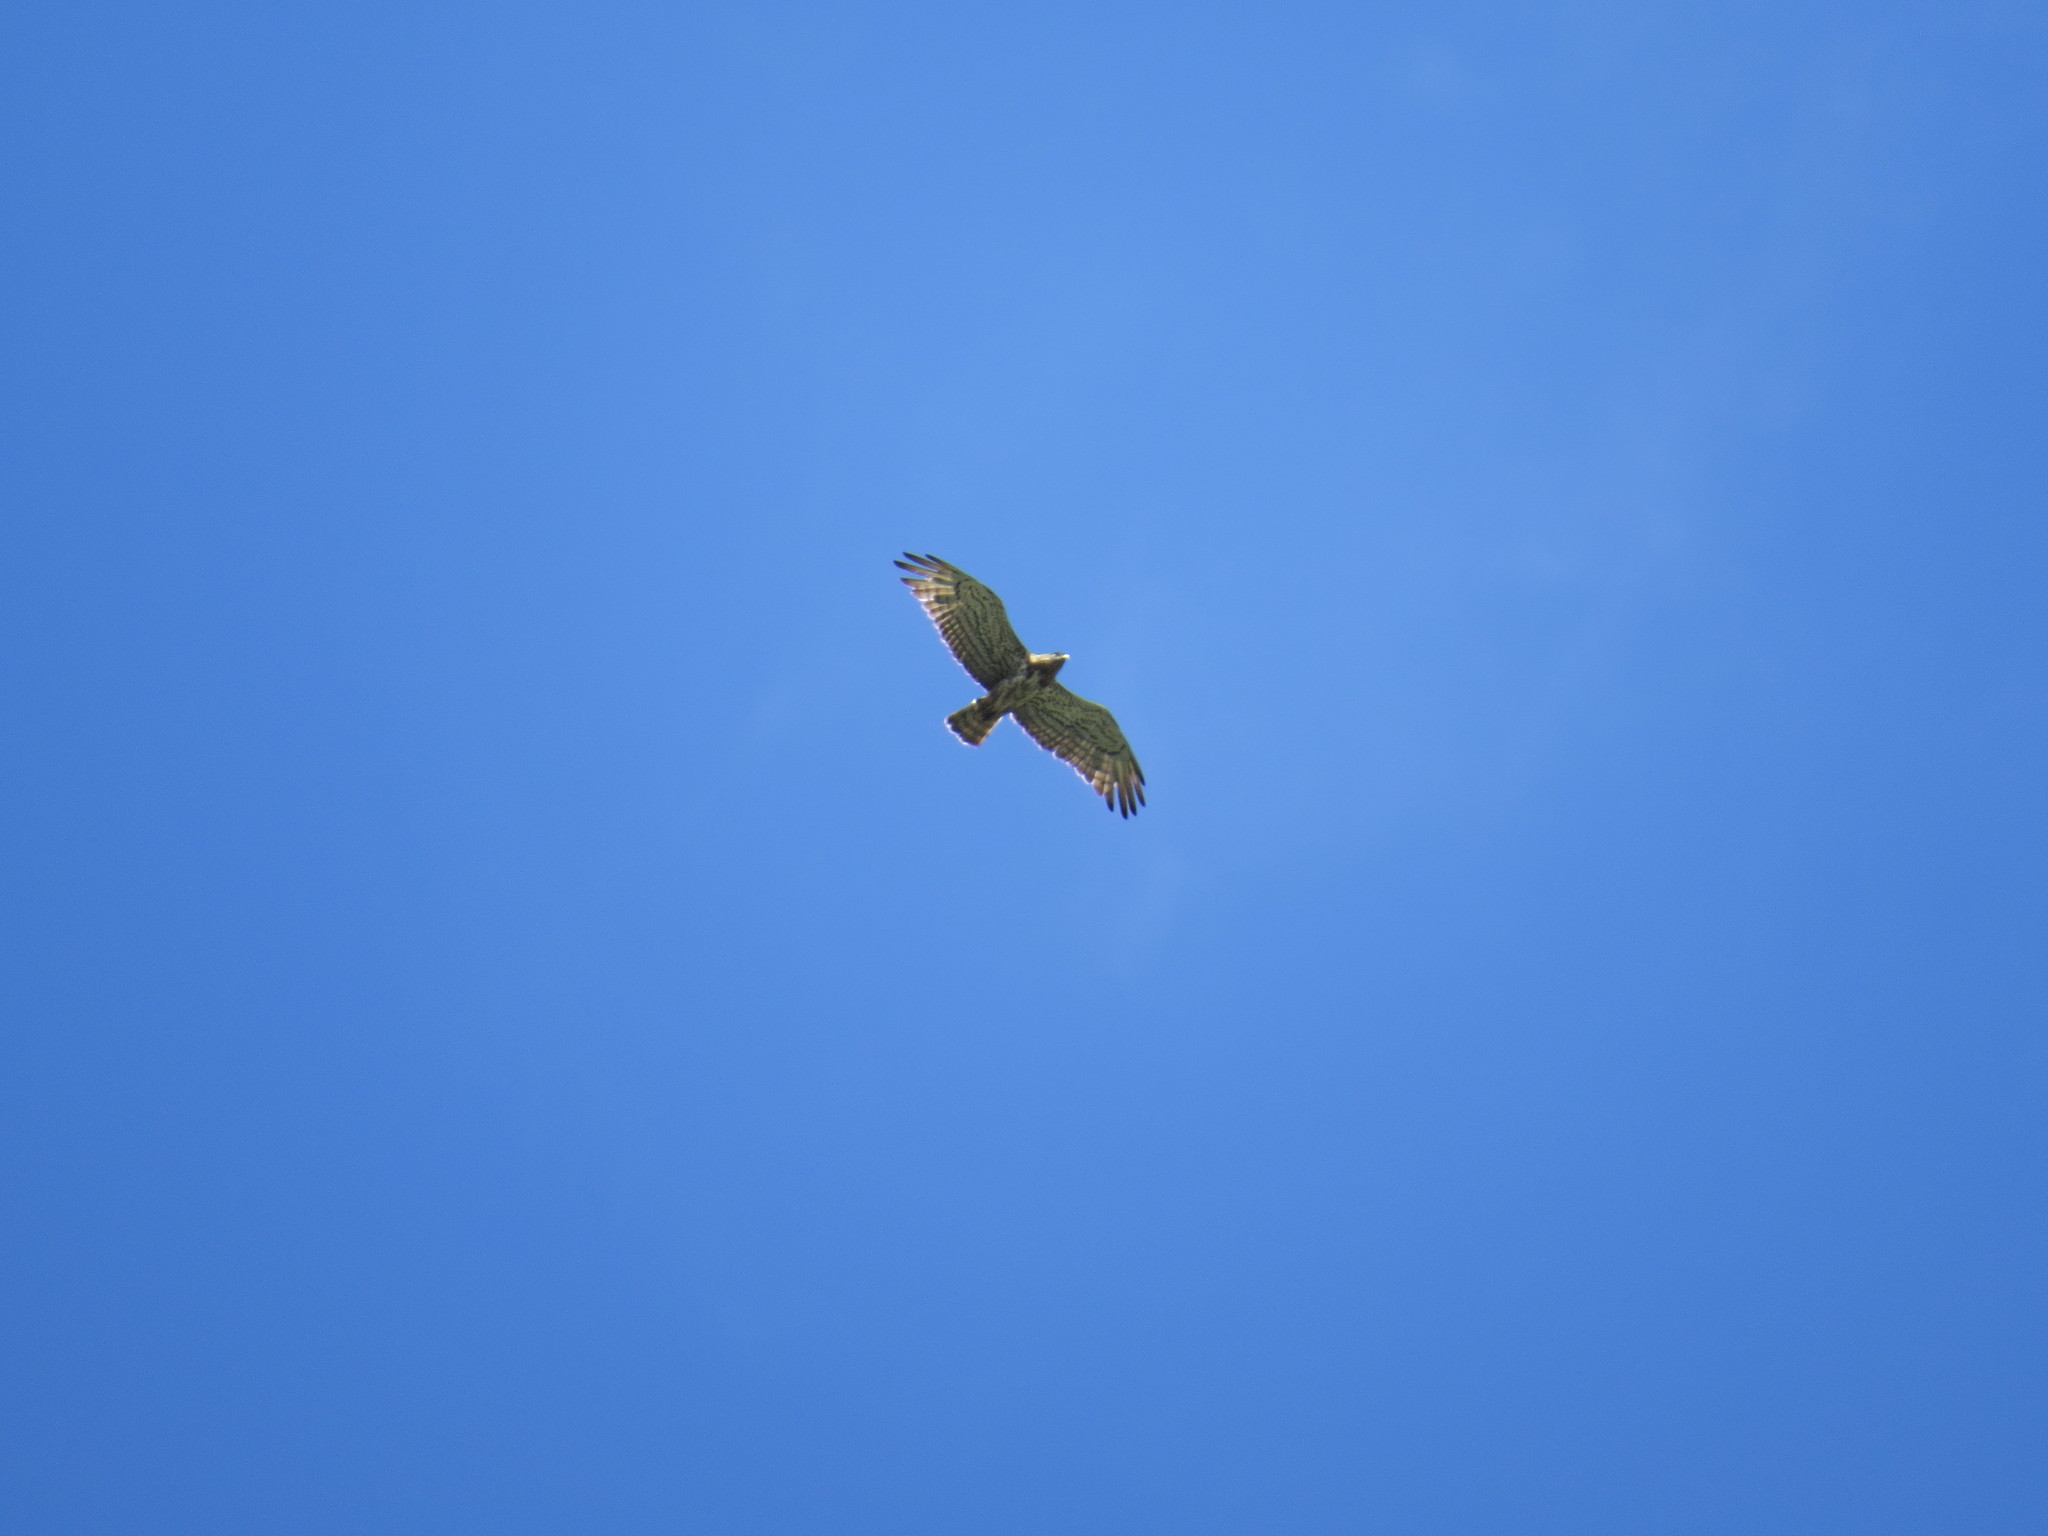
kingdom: Animalia
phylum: Chordata
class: Aves
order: Accipitriformes
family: Accipitridae
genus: Circaetus
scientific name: Circaetus gallicus
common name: Short-toed snake eagle
